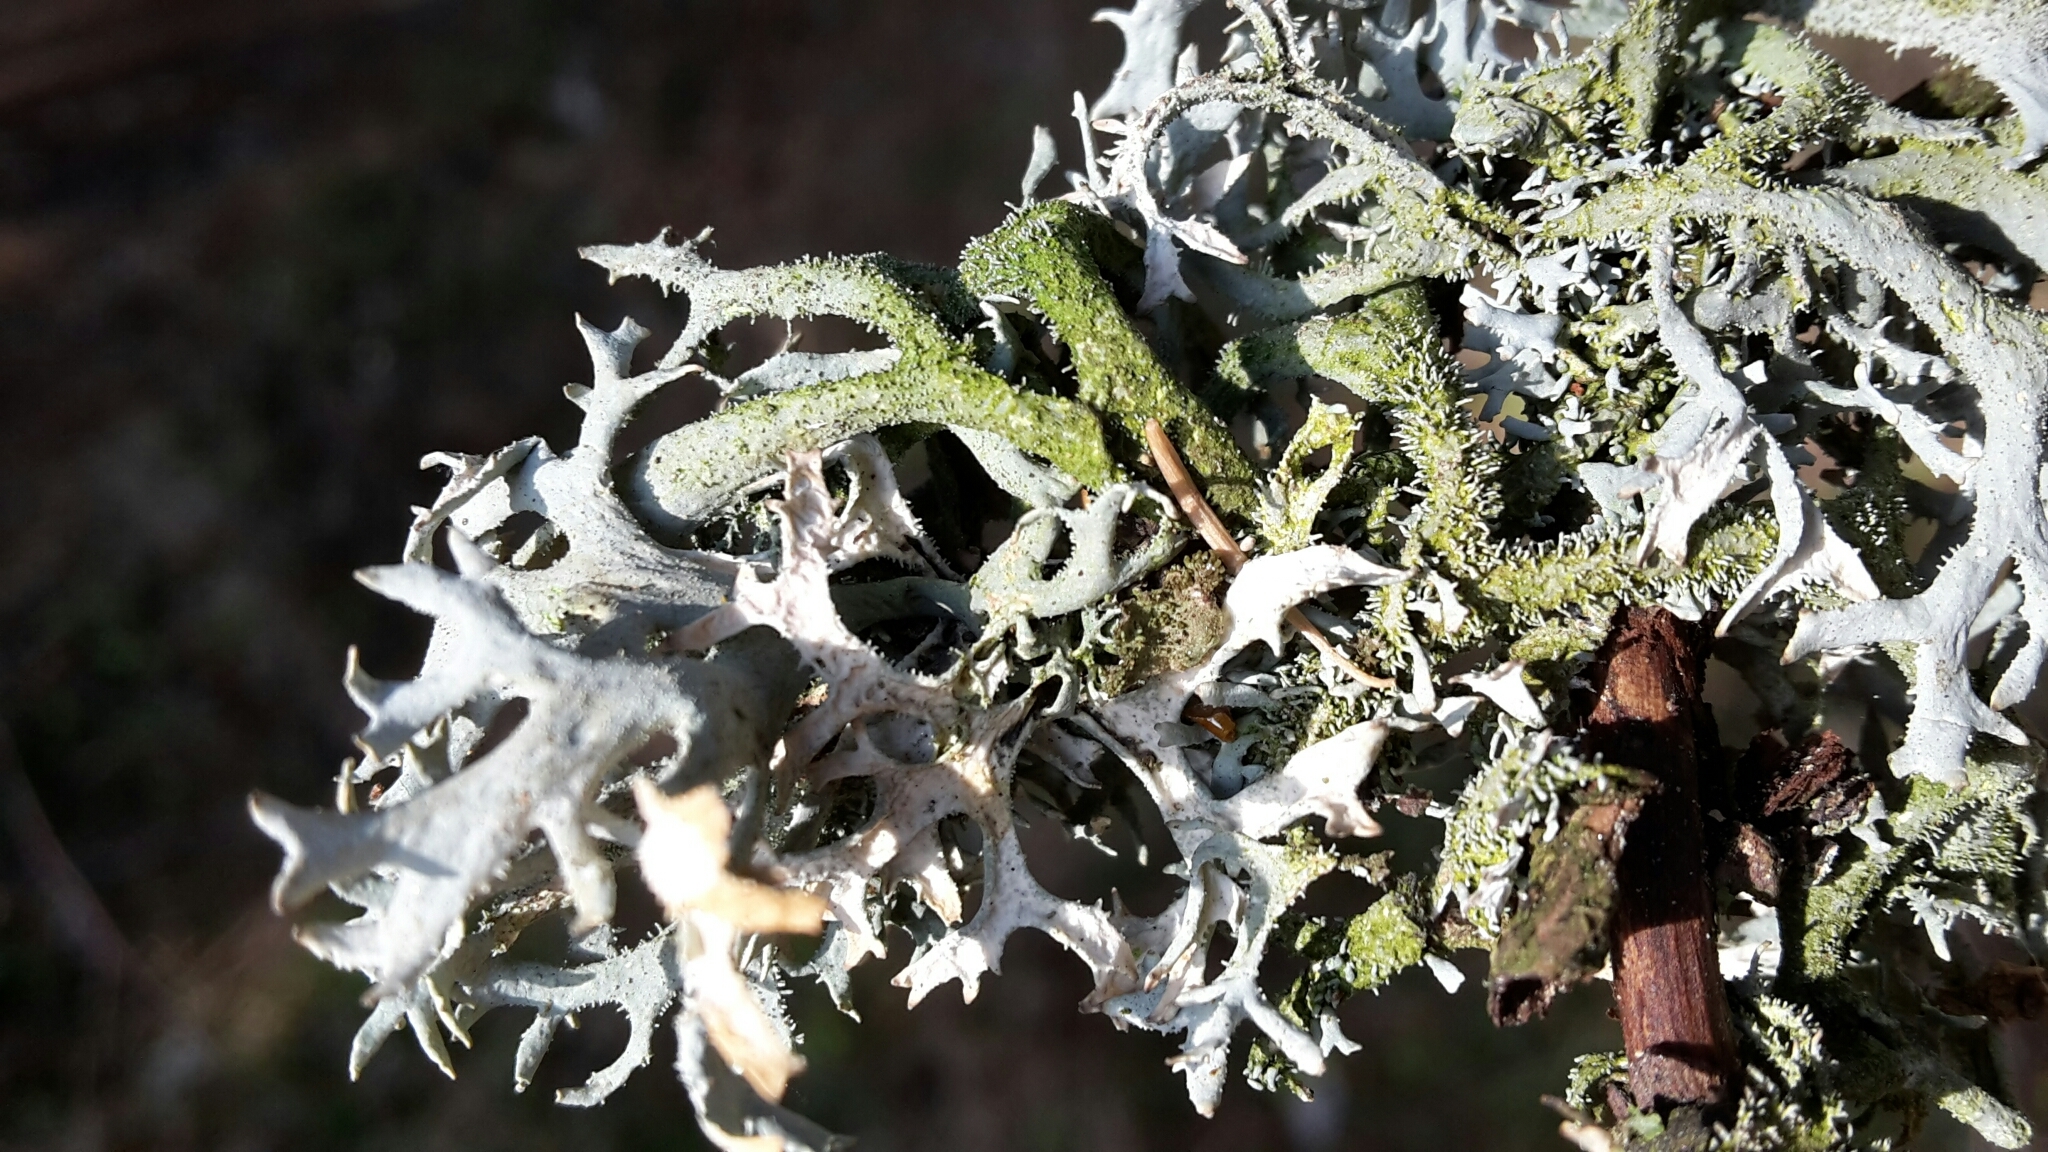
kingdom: Fungi
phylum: Ascomycota
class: Lecanoromycetes
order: Lecanorales
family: Parmeliaceae
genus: Pseudevernia
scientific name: Pseudevernia furfuracea
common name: Tree moss
